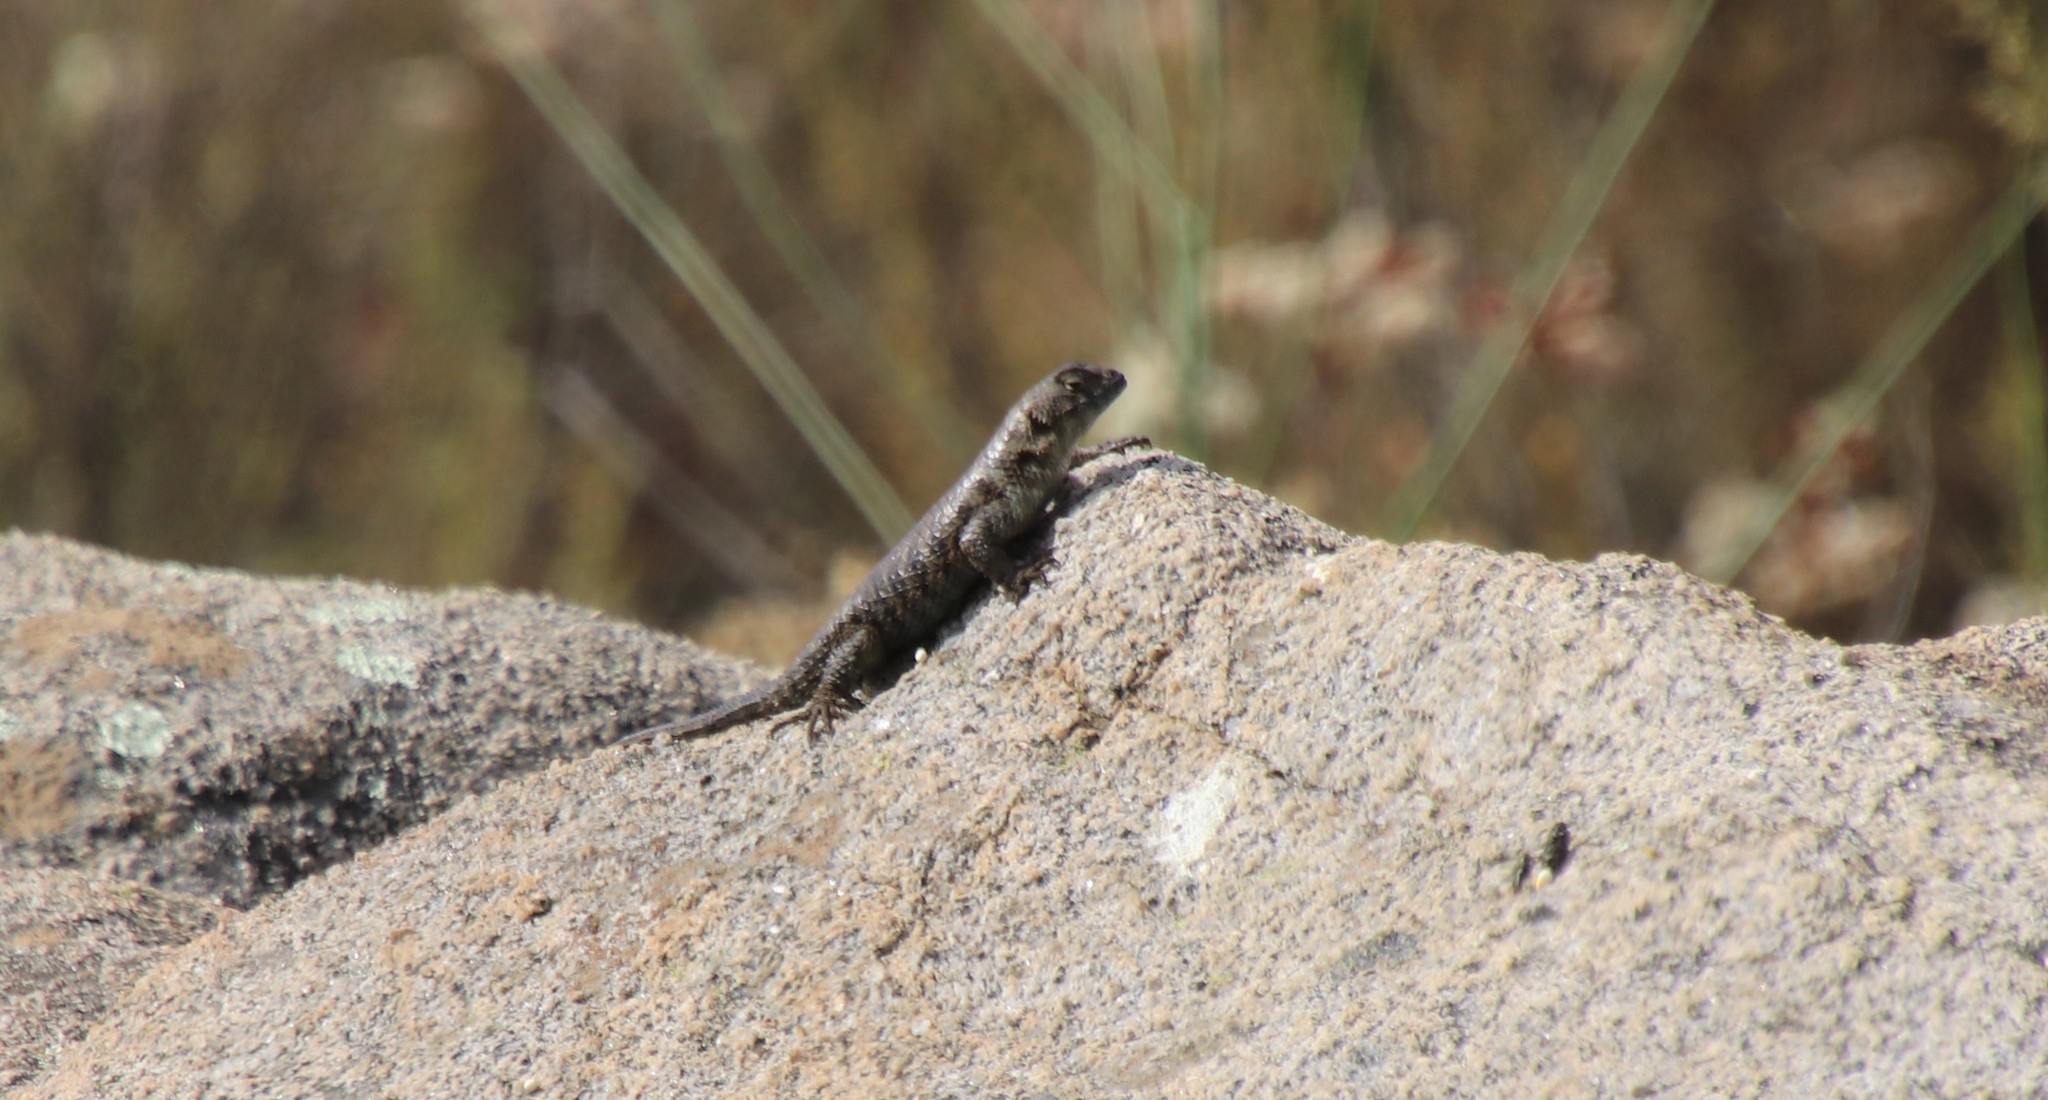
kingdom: Animalia
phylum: Chordata
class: Squamata
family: Phrynosomatidae
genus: Sceloporus
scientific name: Sceloporus orcutti
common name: Granite spiny lizard
